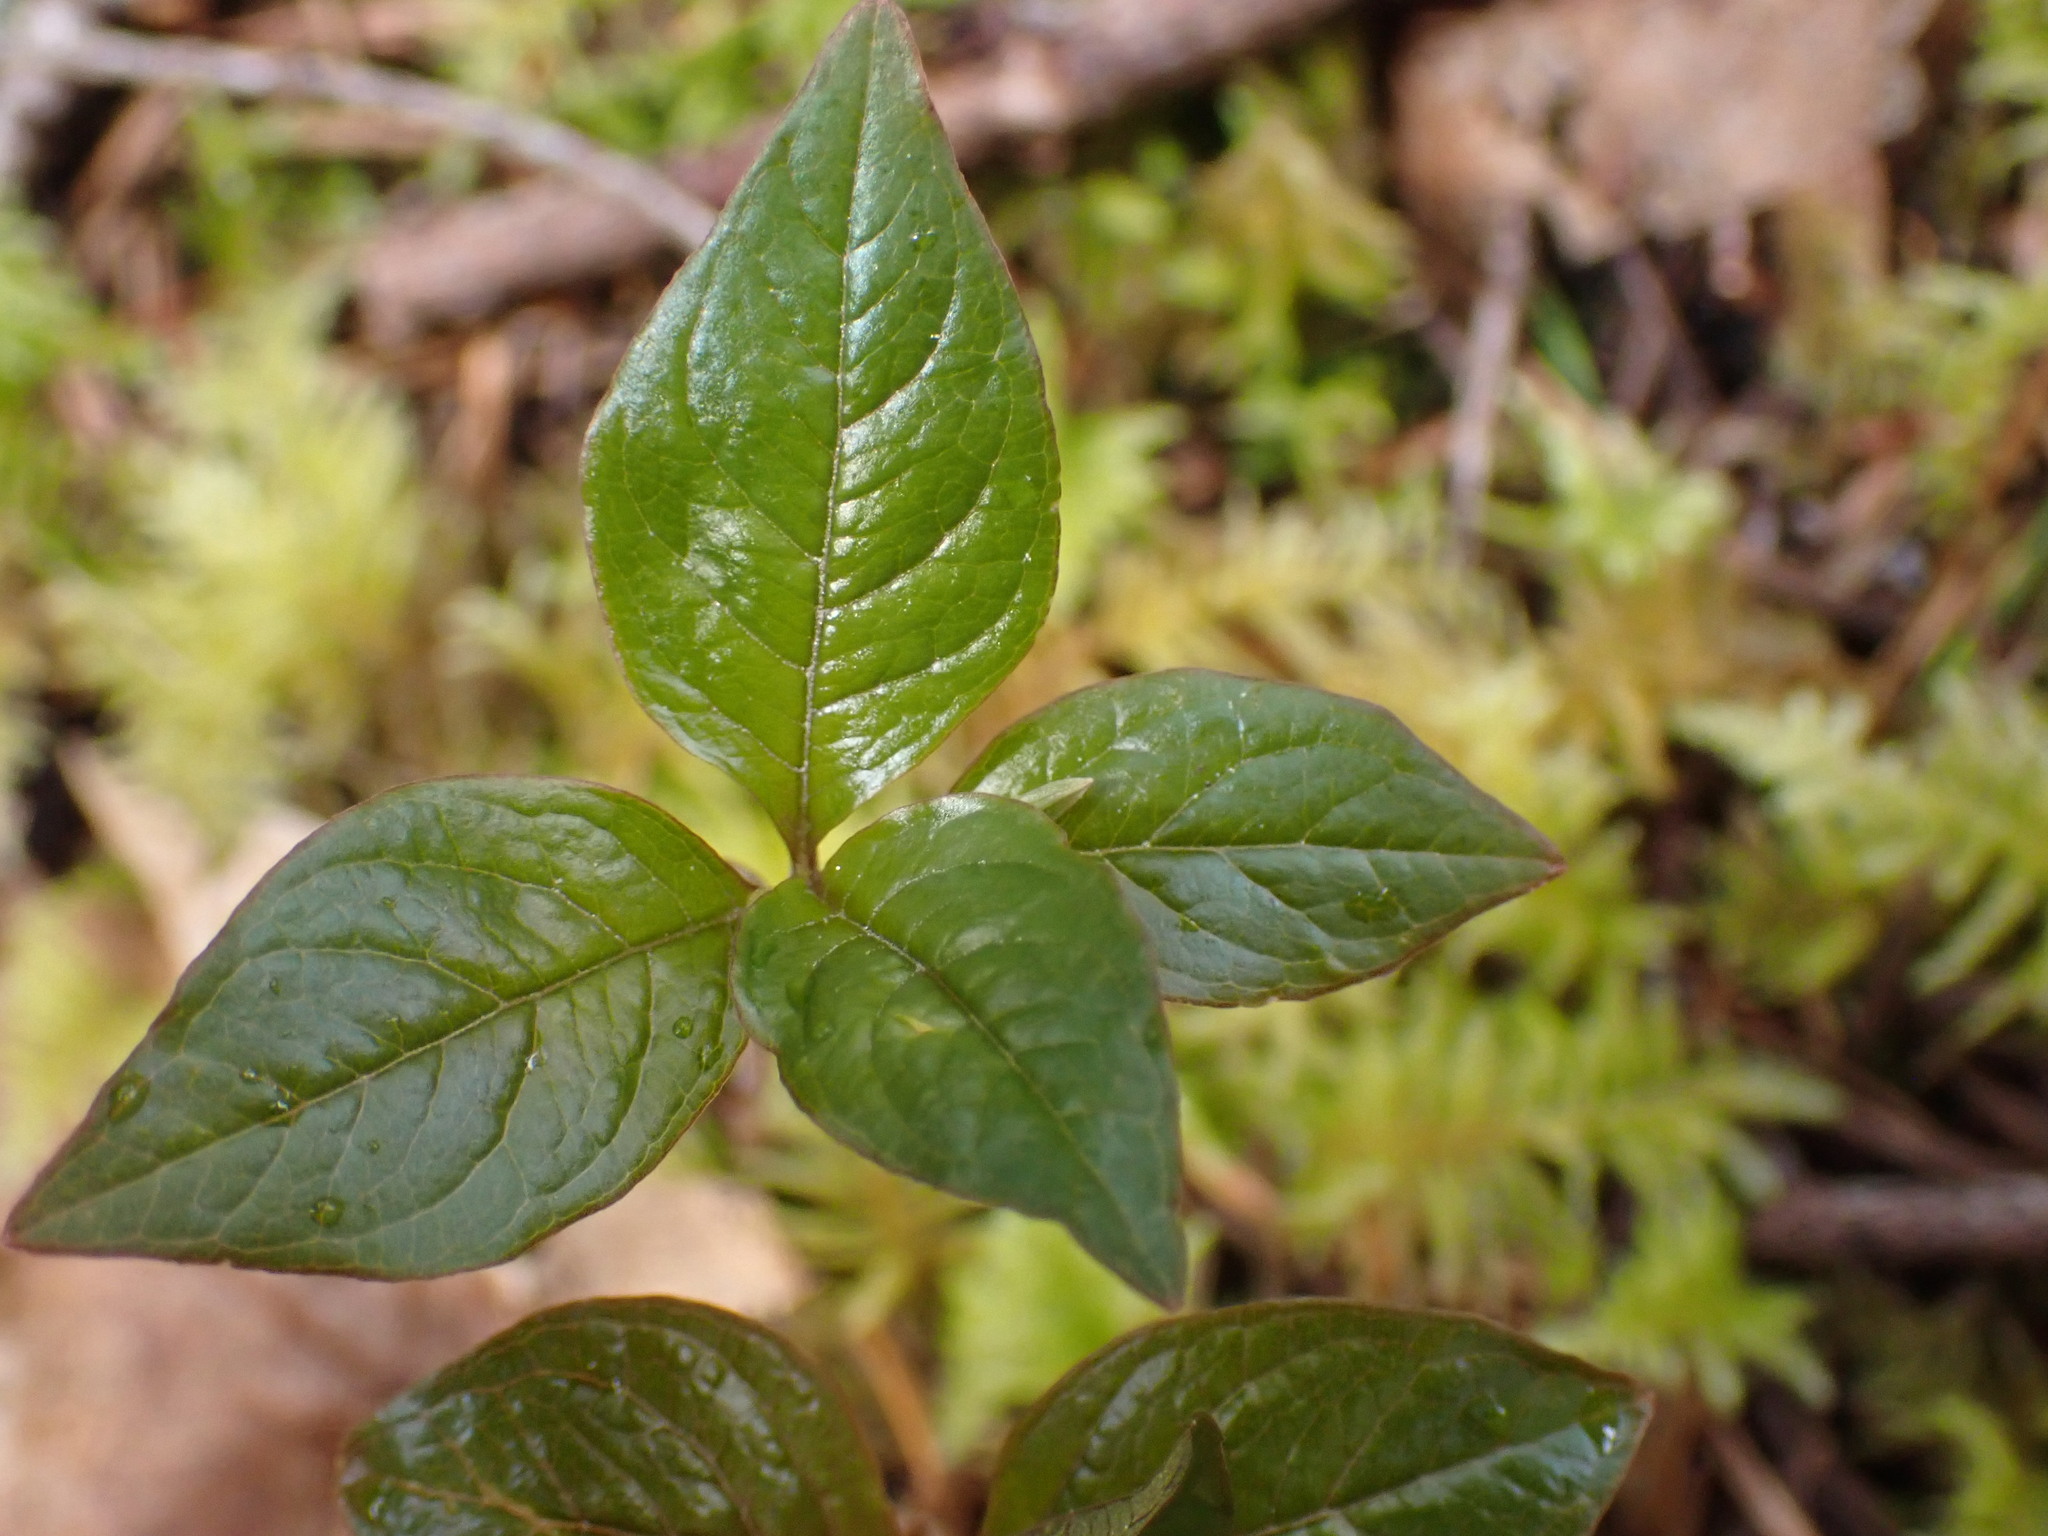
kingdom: Plantae
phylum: Tracheophyta
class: Magnoliopsida
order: Ericales
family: Primulaceae
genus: Lysimachia
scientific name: Lysimachia latifolia
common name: Pacific starflower
